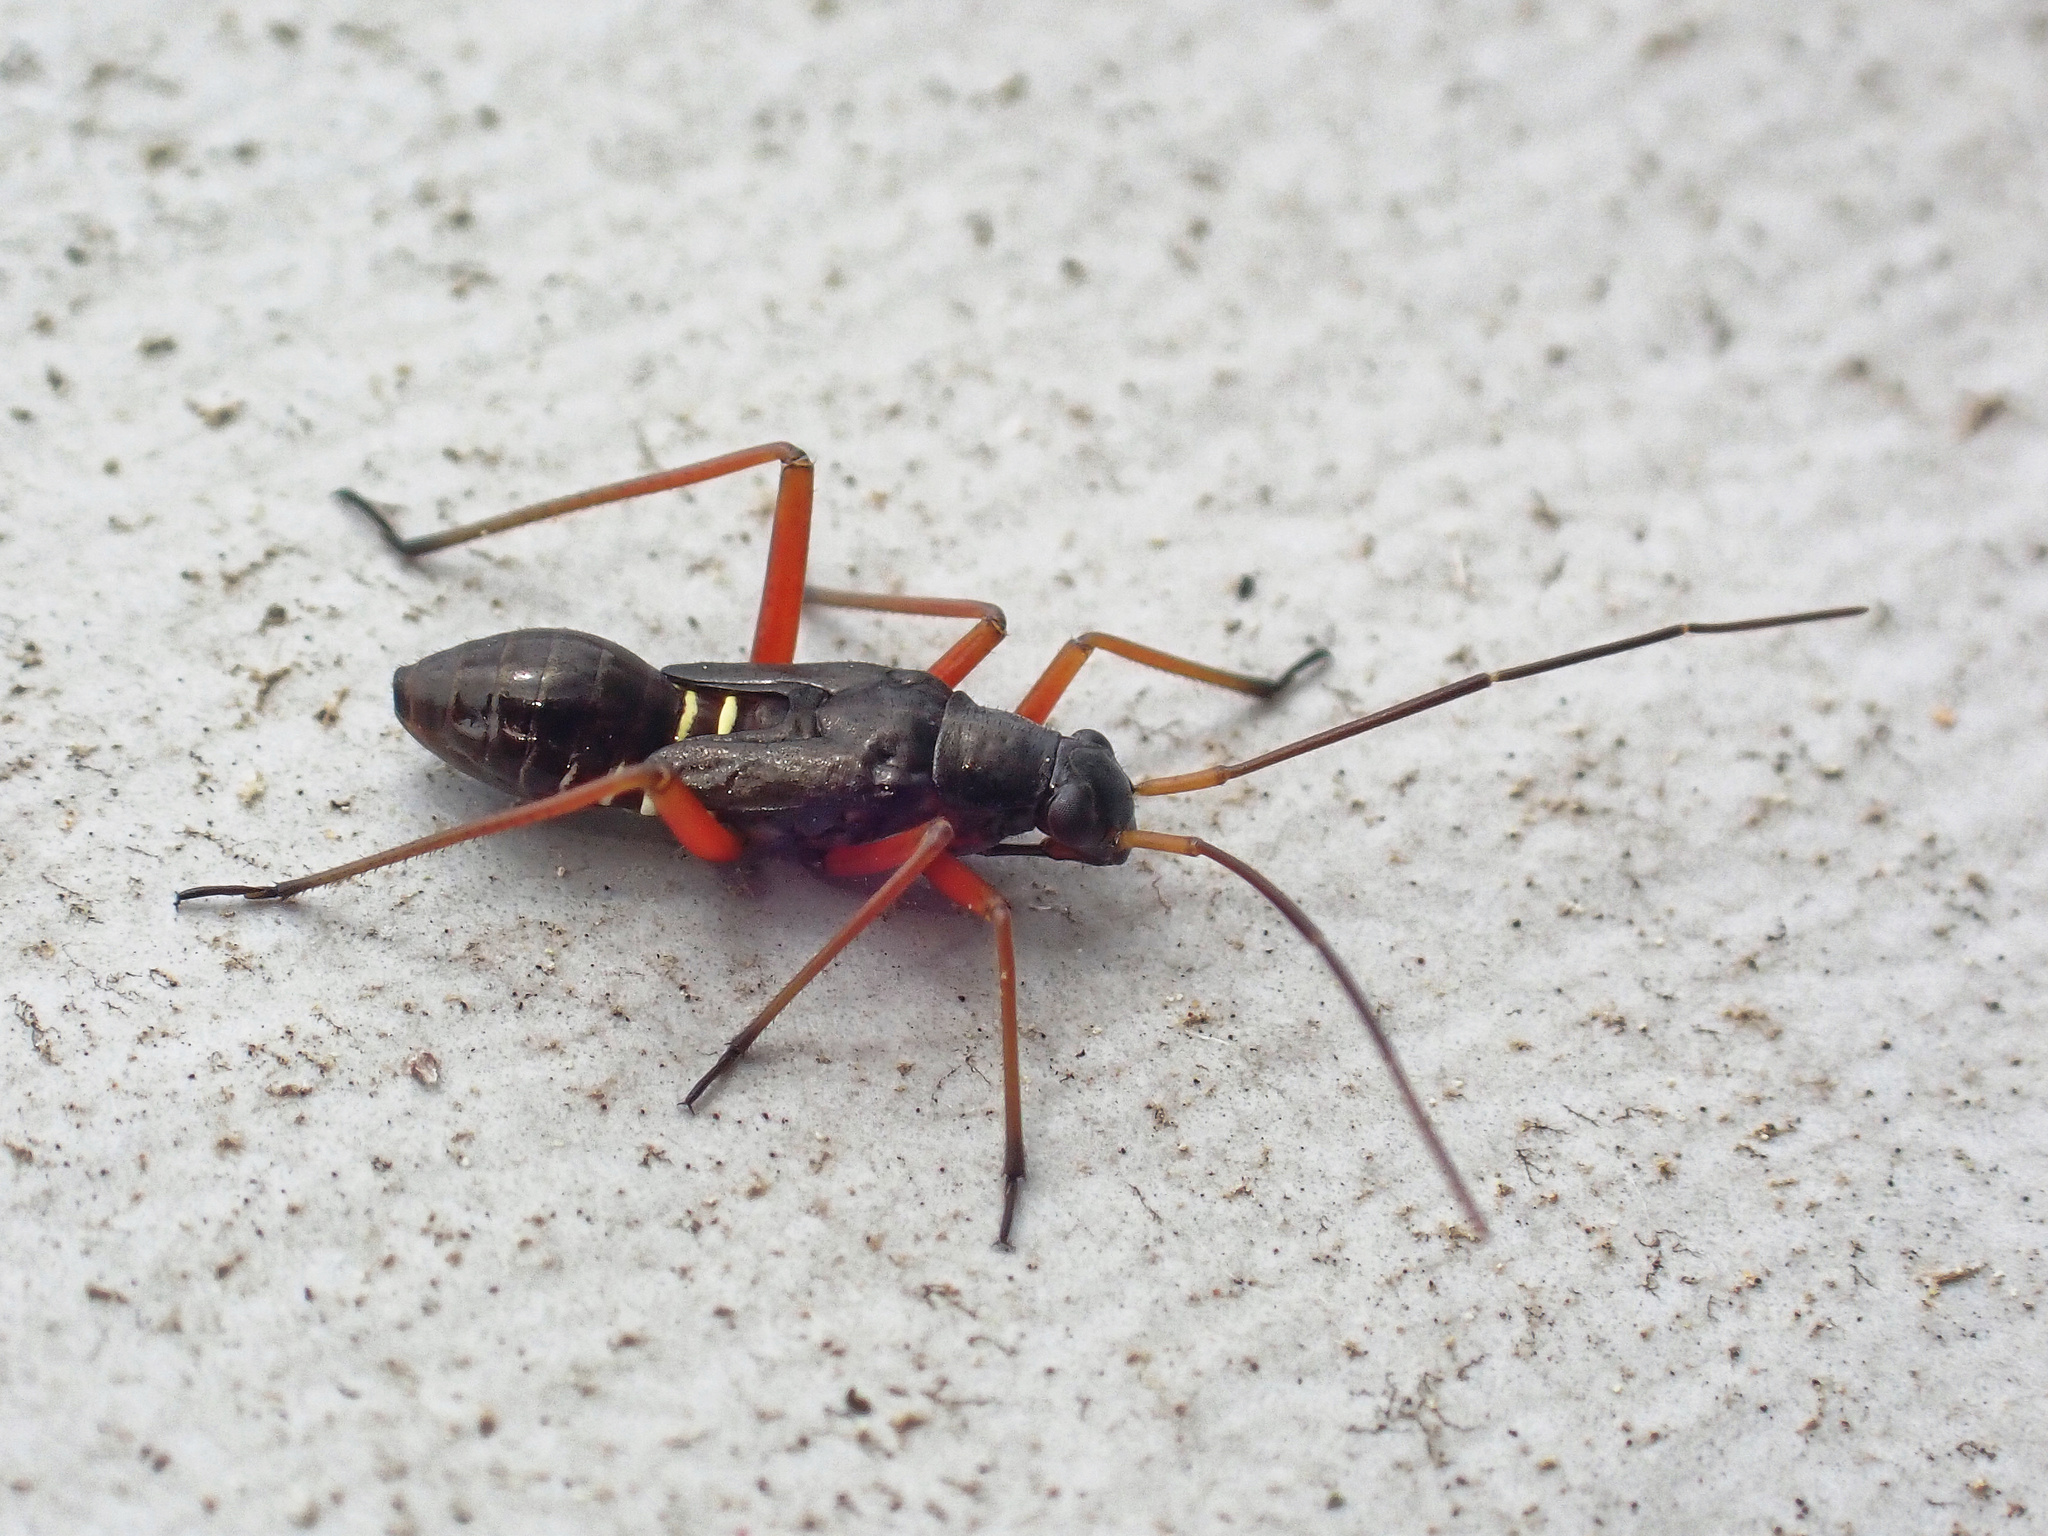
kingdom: Animalia
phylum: Arthropoda
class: Insecta
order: Hemiptera
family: Miridae
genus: Miris
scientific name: Miris striatus
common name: Fine streaked bugkin
